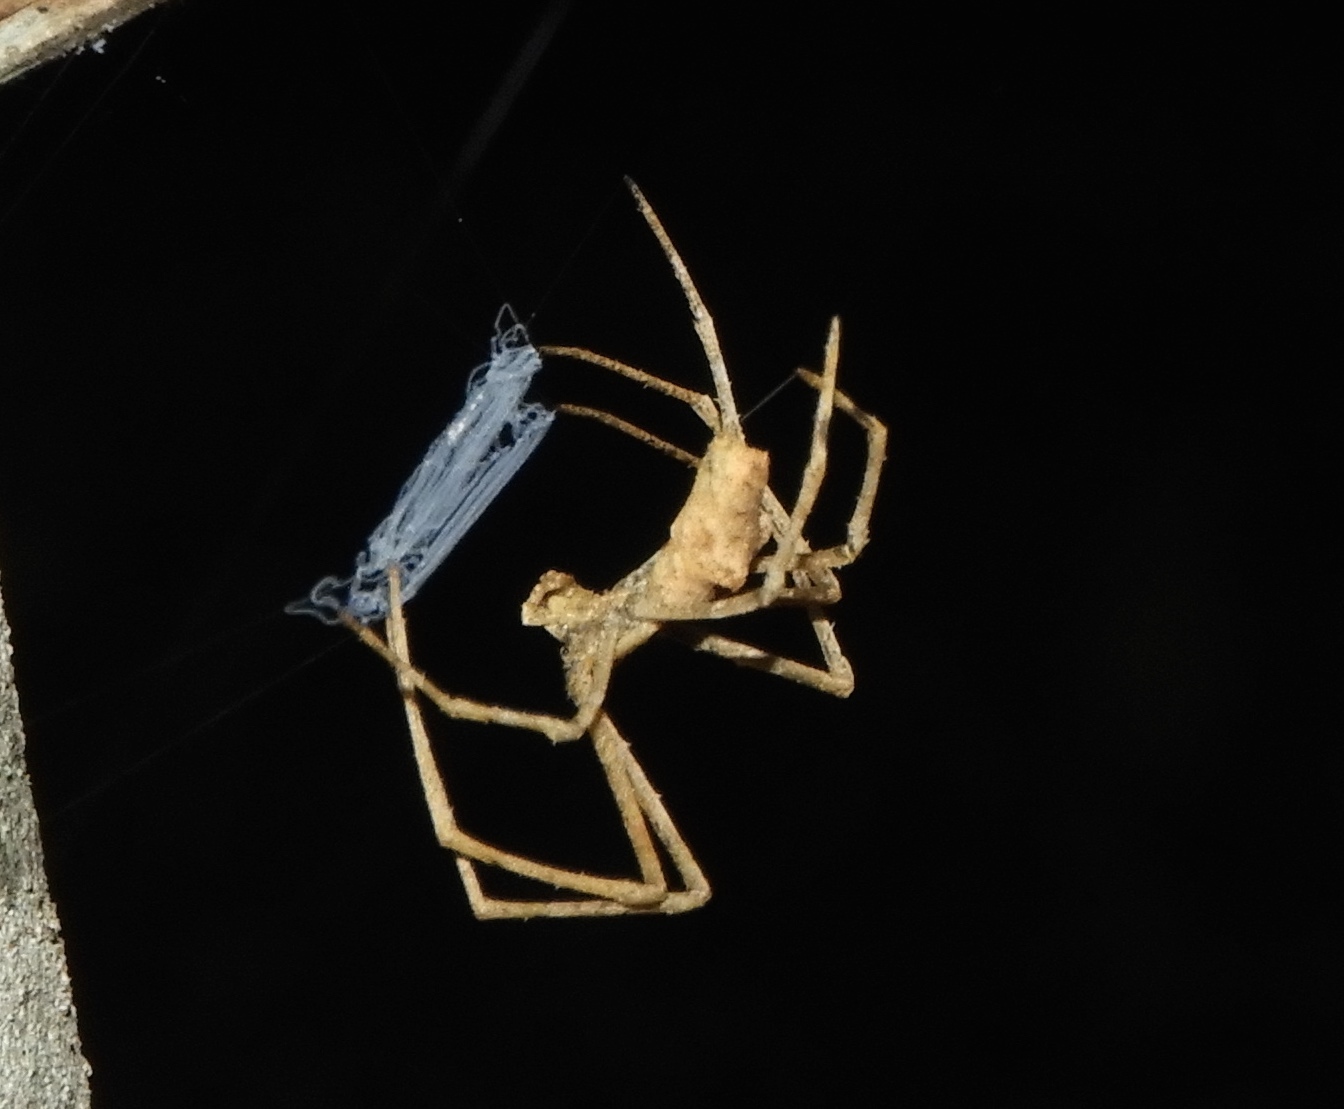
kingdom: Animalia
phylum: Arthropoda
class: Arachnida
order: Araneae
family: Deinopidae
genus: Deinopis
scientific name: Deinopis aurita
